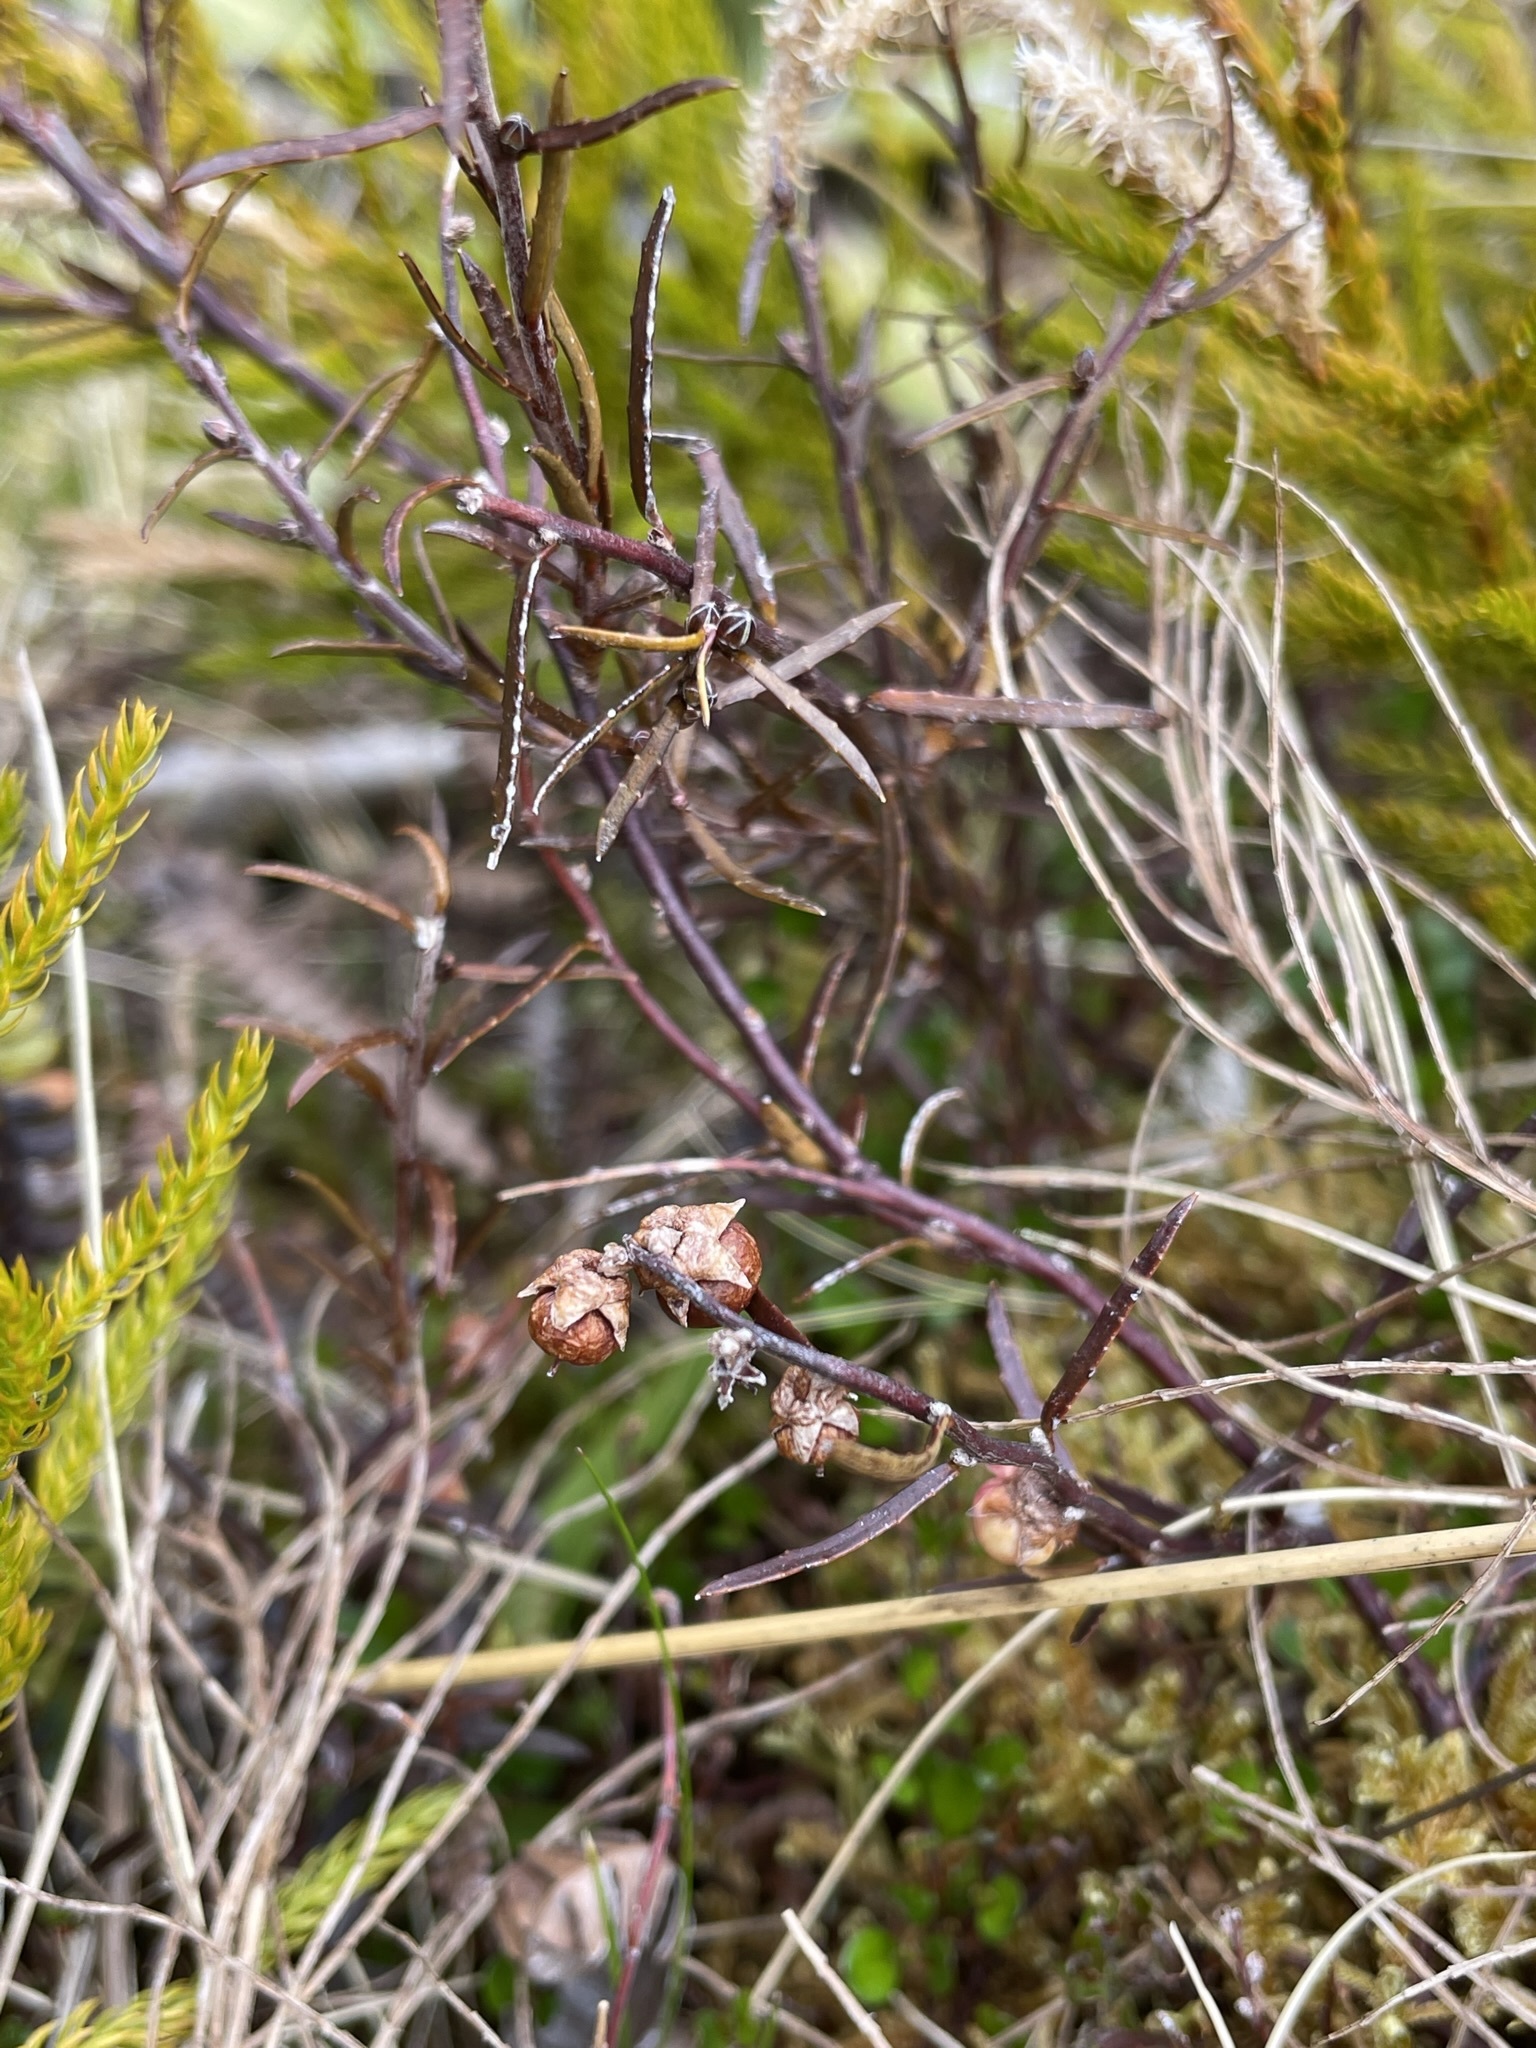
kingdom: Plantae
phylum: Tracheophyta
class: Magnoliopsida
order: Ericales
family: Ericaceae
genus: Gaultheria
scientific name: Gaultheria macrostigma
